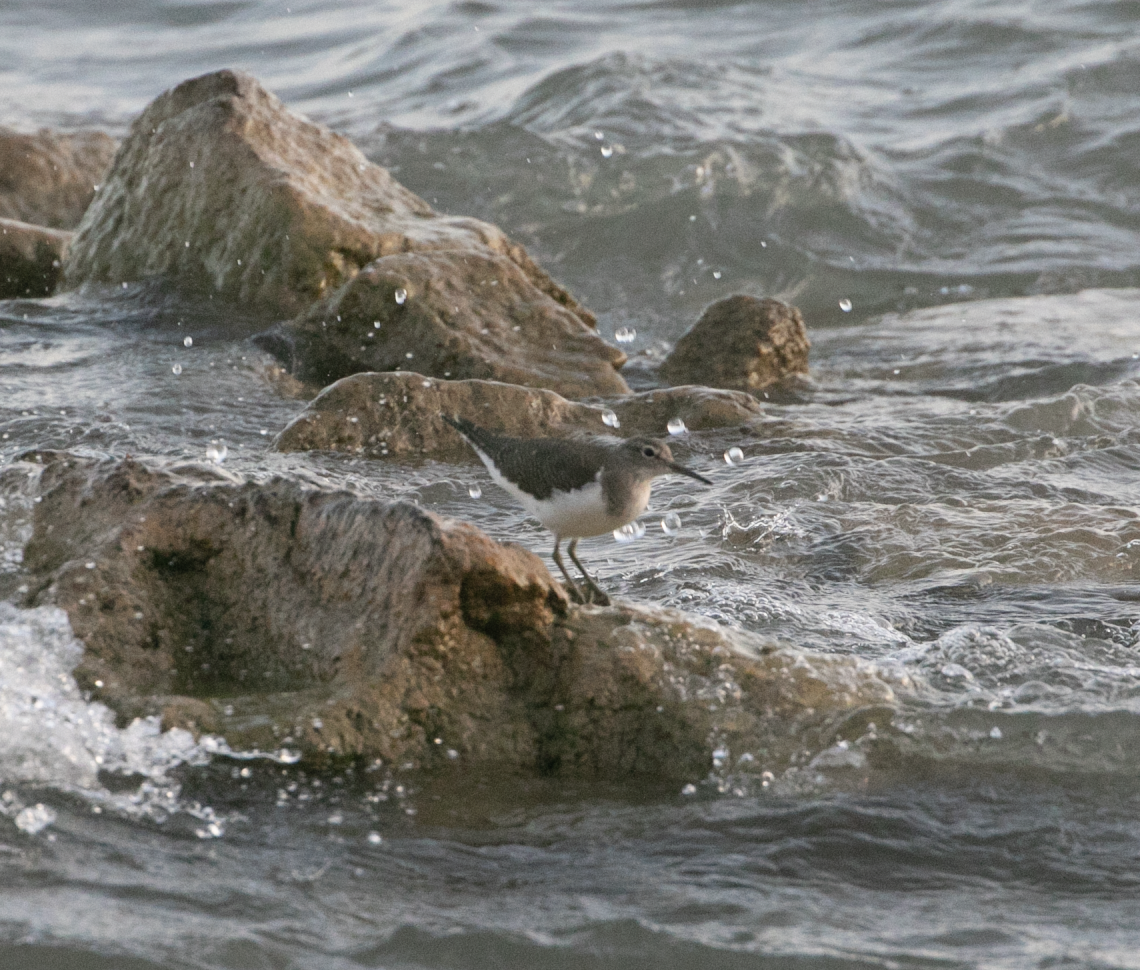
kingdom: Animalia
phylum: Chordata
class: Aves
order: Charadriiformes
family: Scolopacidae
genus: Actitis
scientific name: Actitis hypoleucos
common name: Common sandpiper
